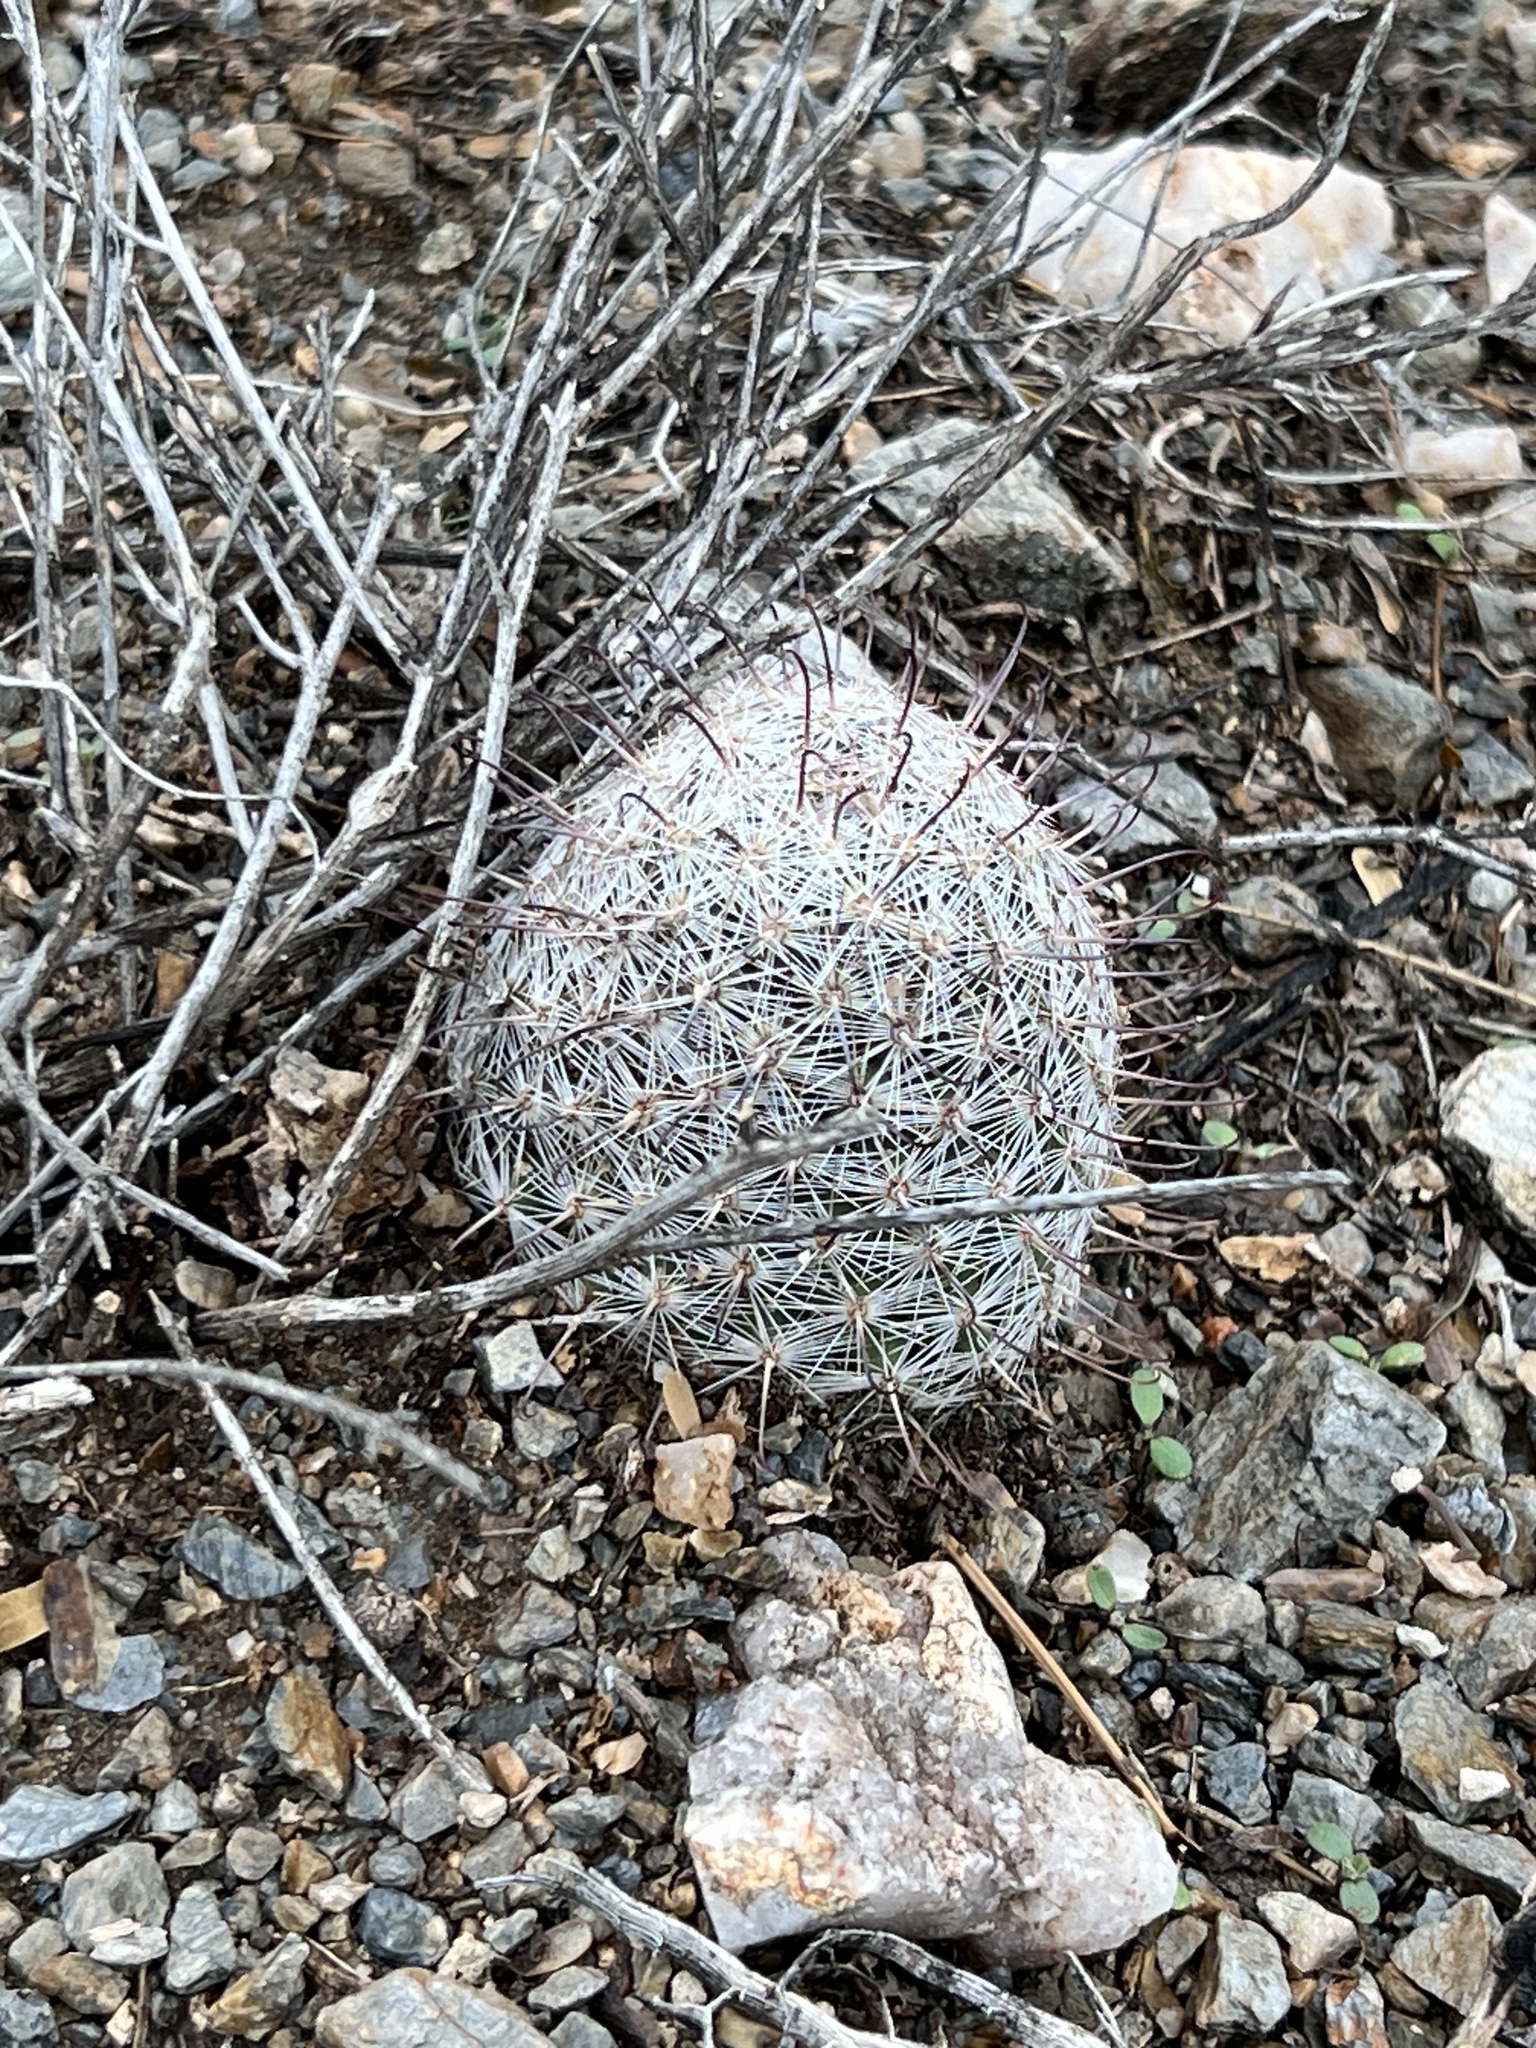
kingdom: Plantae
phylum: Tracheophyta
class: Magnoliopsida
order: Caryophyllales
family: Cactaceae
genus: Cochemiea
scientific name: Cochemiea grahamii
